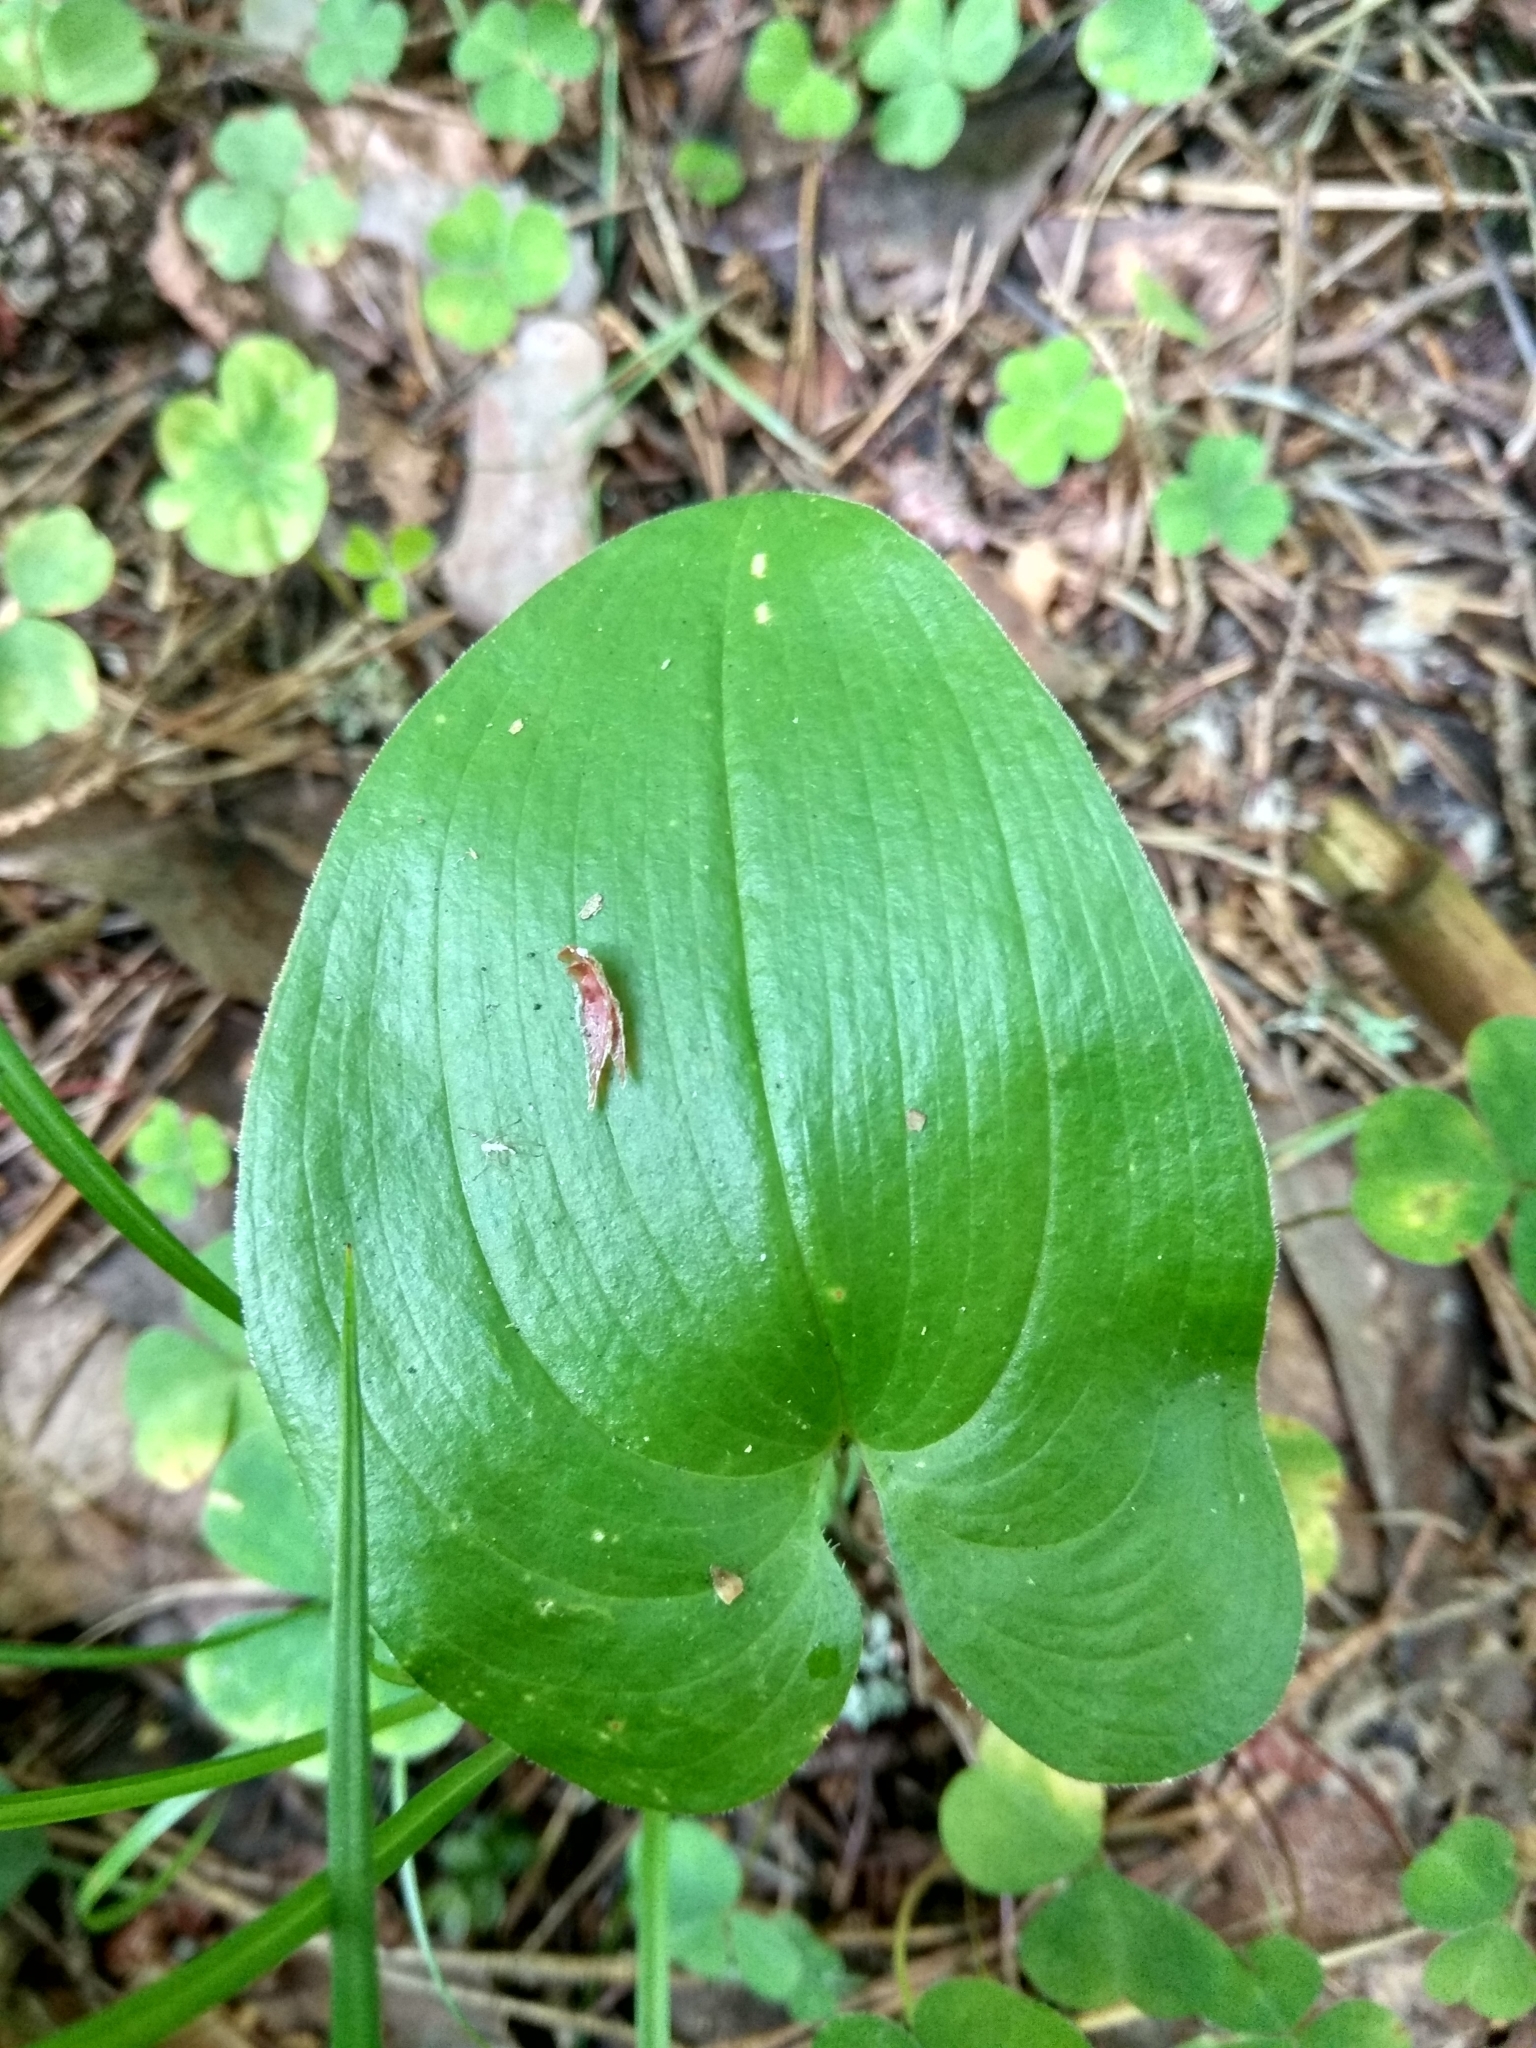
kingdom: Plantae
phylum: Tracheophyta
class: Liliopsida
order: Asparagales
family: Asparagaceae
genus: Maianthemum
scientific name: Maianthemum bifolium
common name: May lily
